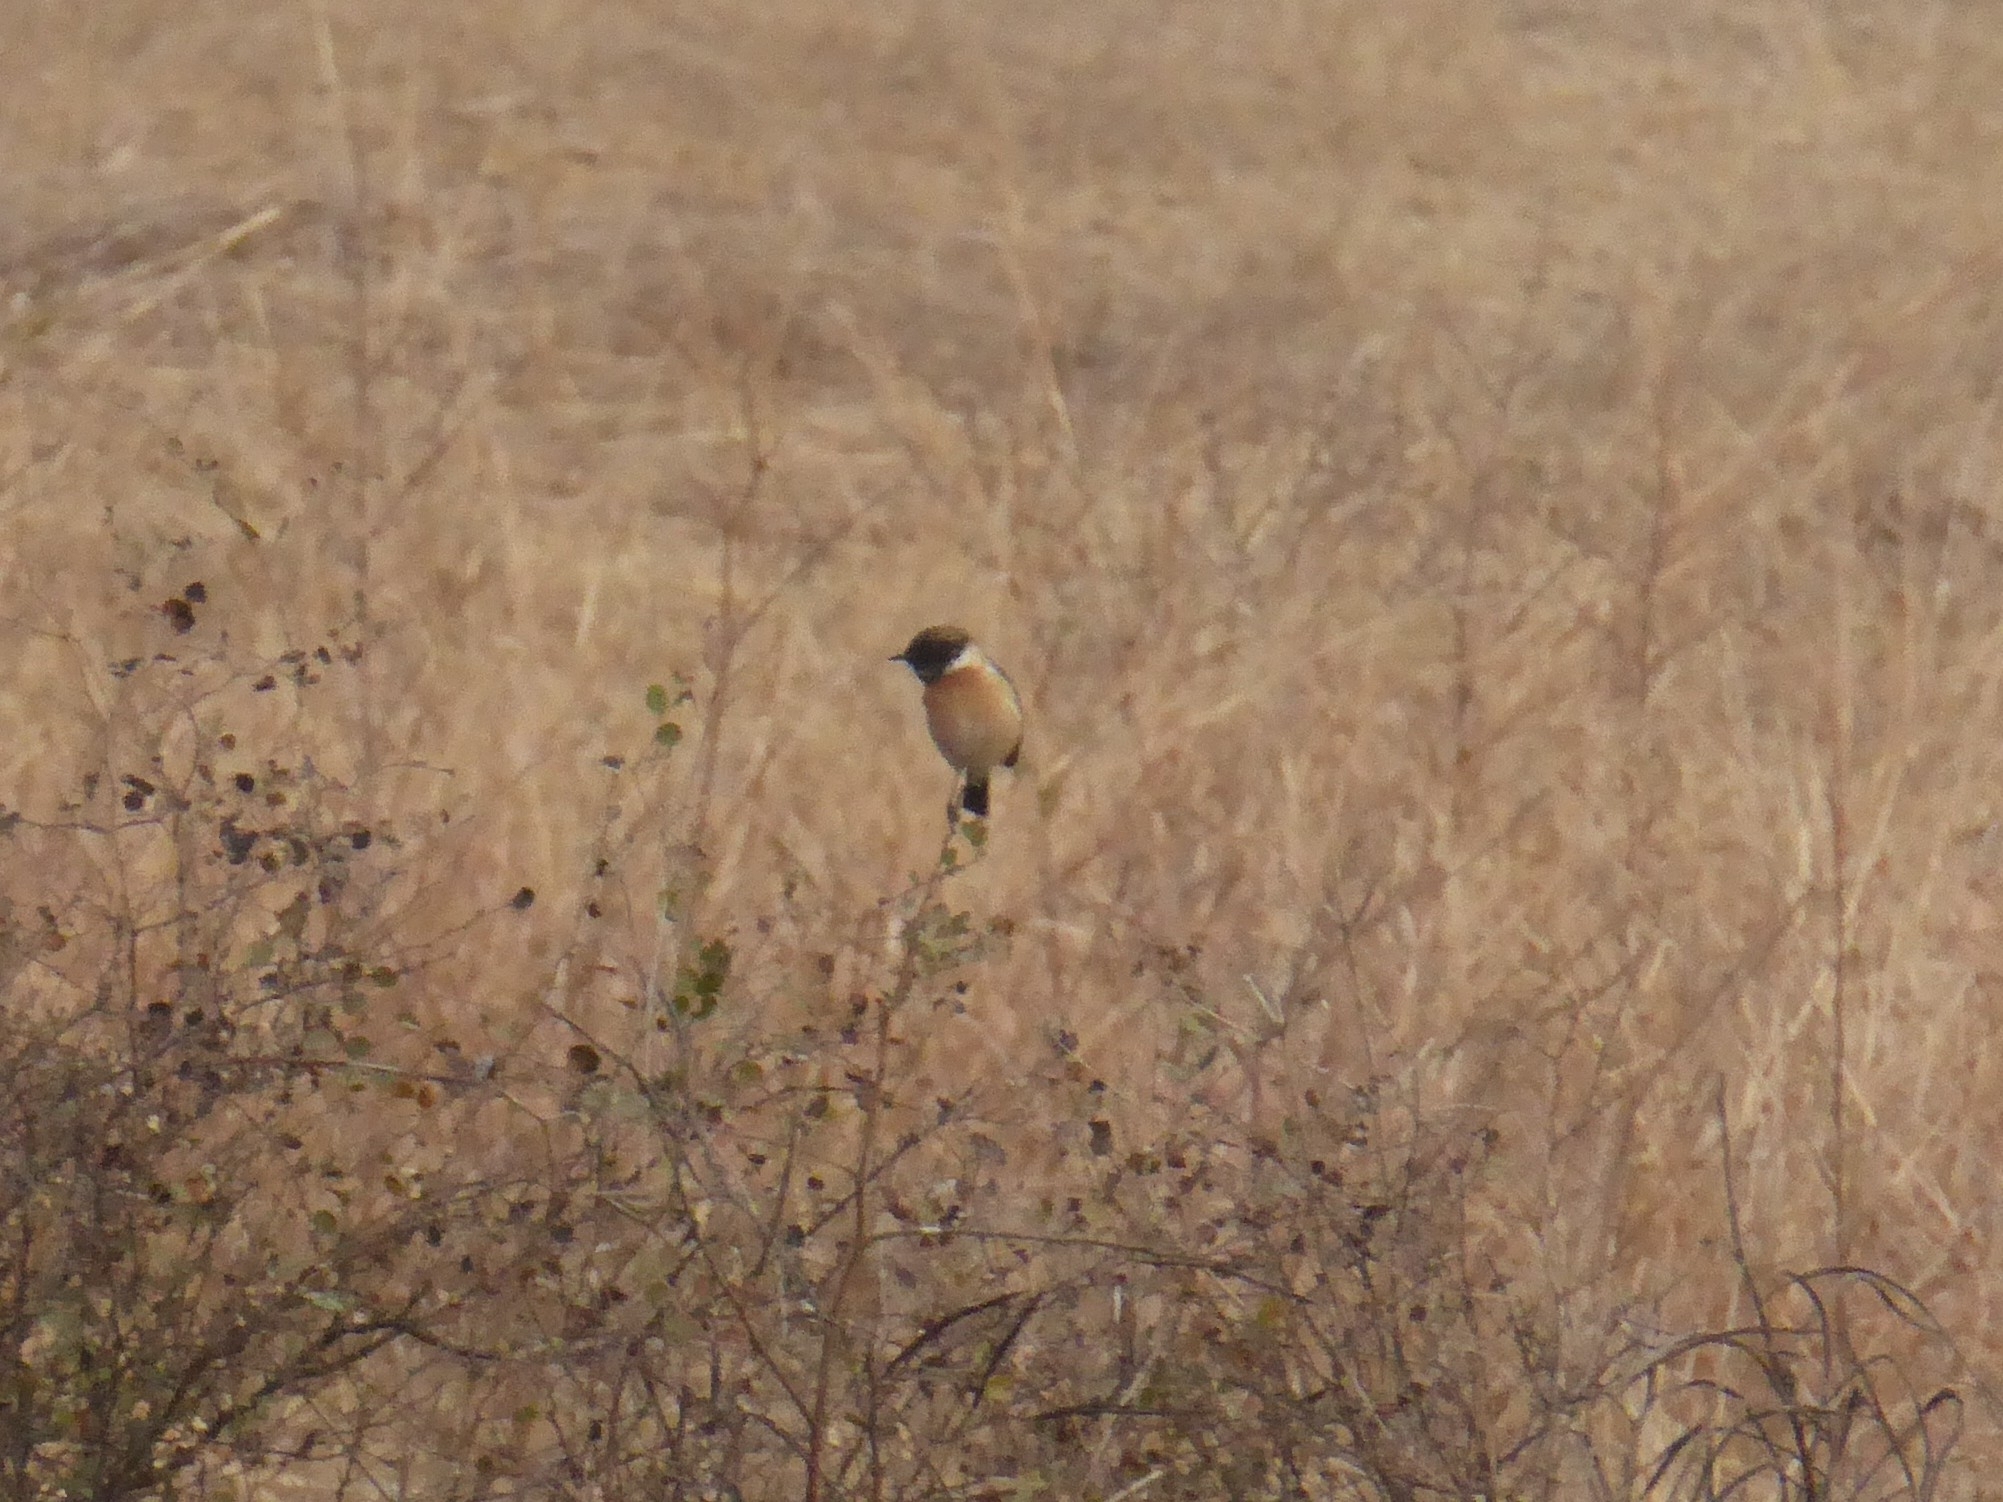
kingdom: Animalia
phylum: Chordata
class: Aves
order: Passeriformes
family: Muscicapidae
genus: Saxicola
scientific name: Saxicola maurus
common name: Siberian stonechat
